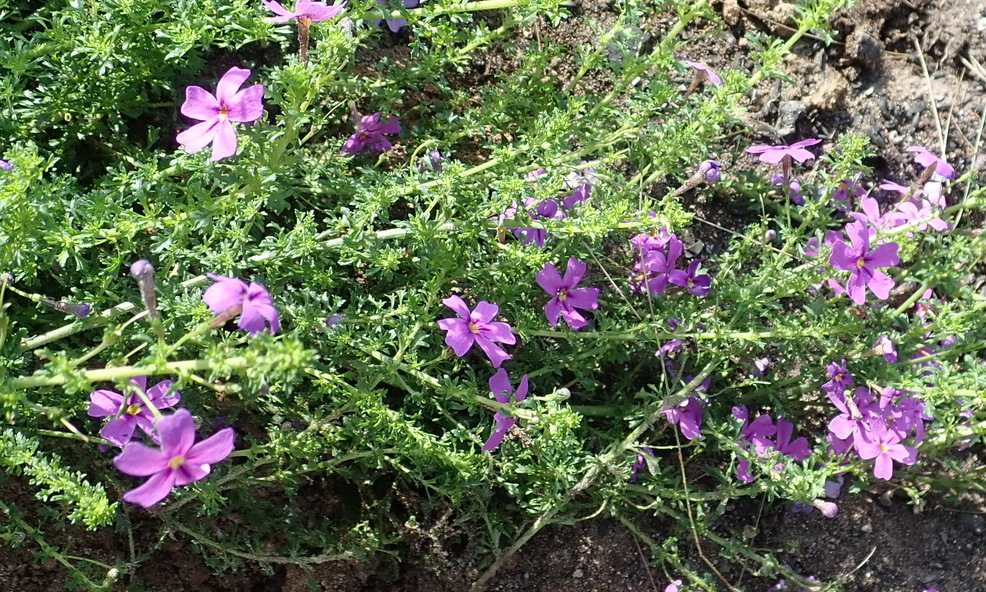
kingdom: Plantae
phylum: Tracheophyta
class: Magnoliopsida
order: Lamiales
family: Scrophulariaceae
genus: Jamesbrittenia
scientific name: Jamesbrittenia tenuifolia
